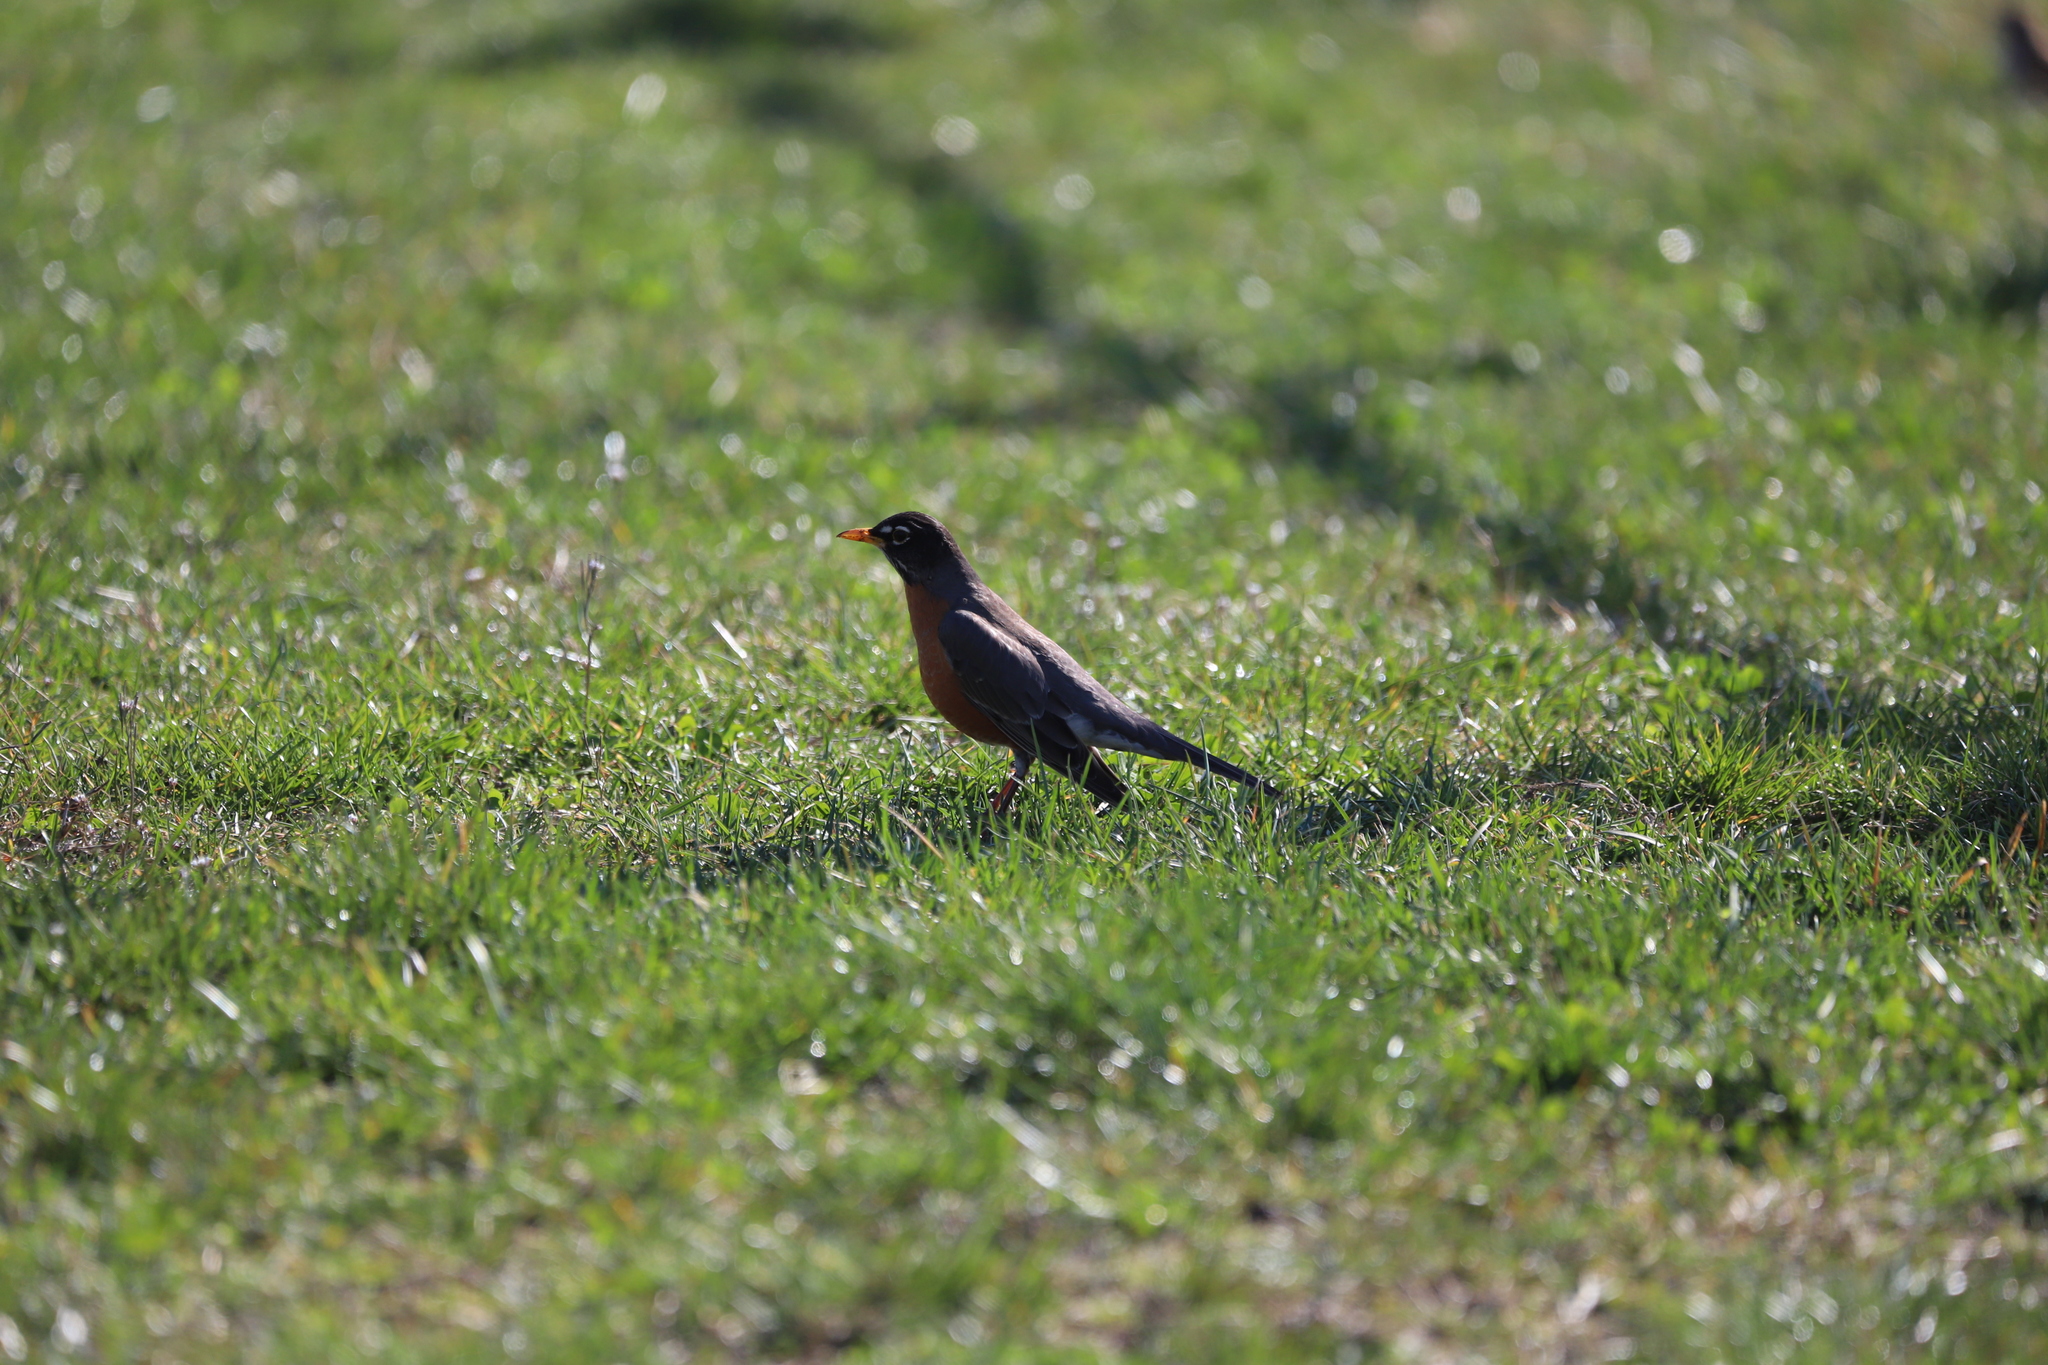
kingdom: Animalia
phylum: Chordata
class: Aves
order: Passeriformes
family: Turdidae
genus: Turdus
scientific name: Turdus migratorius
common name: American robin
